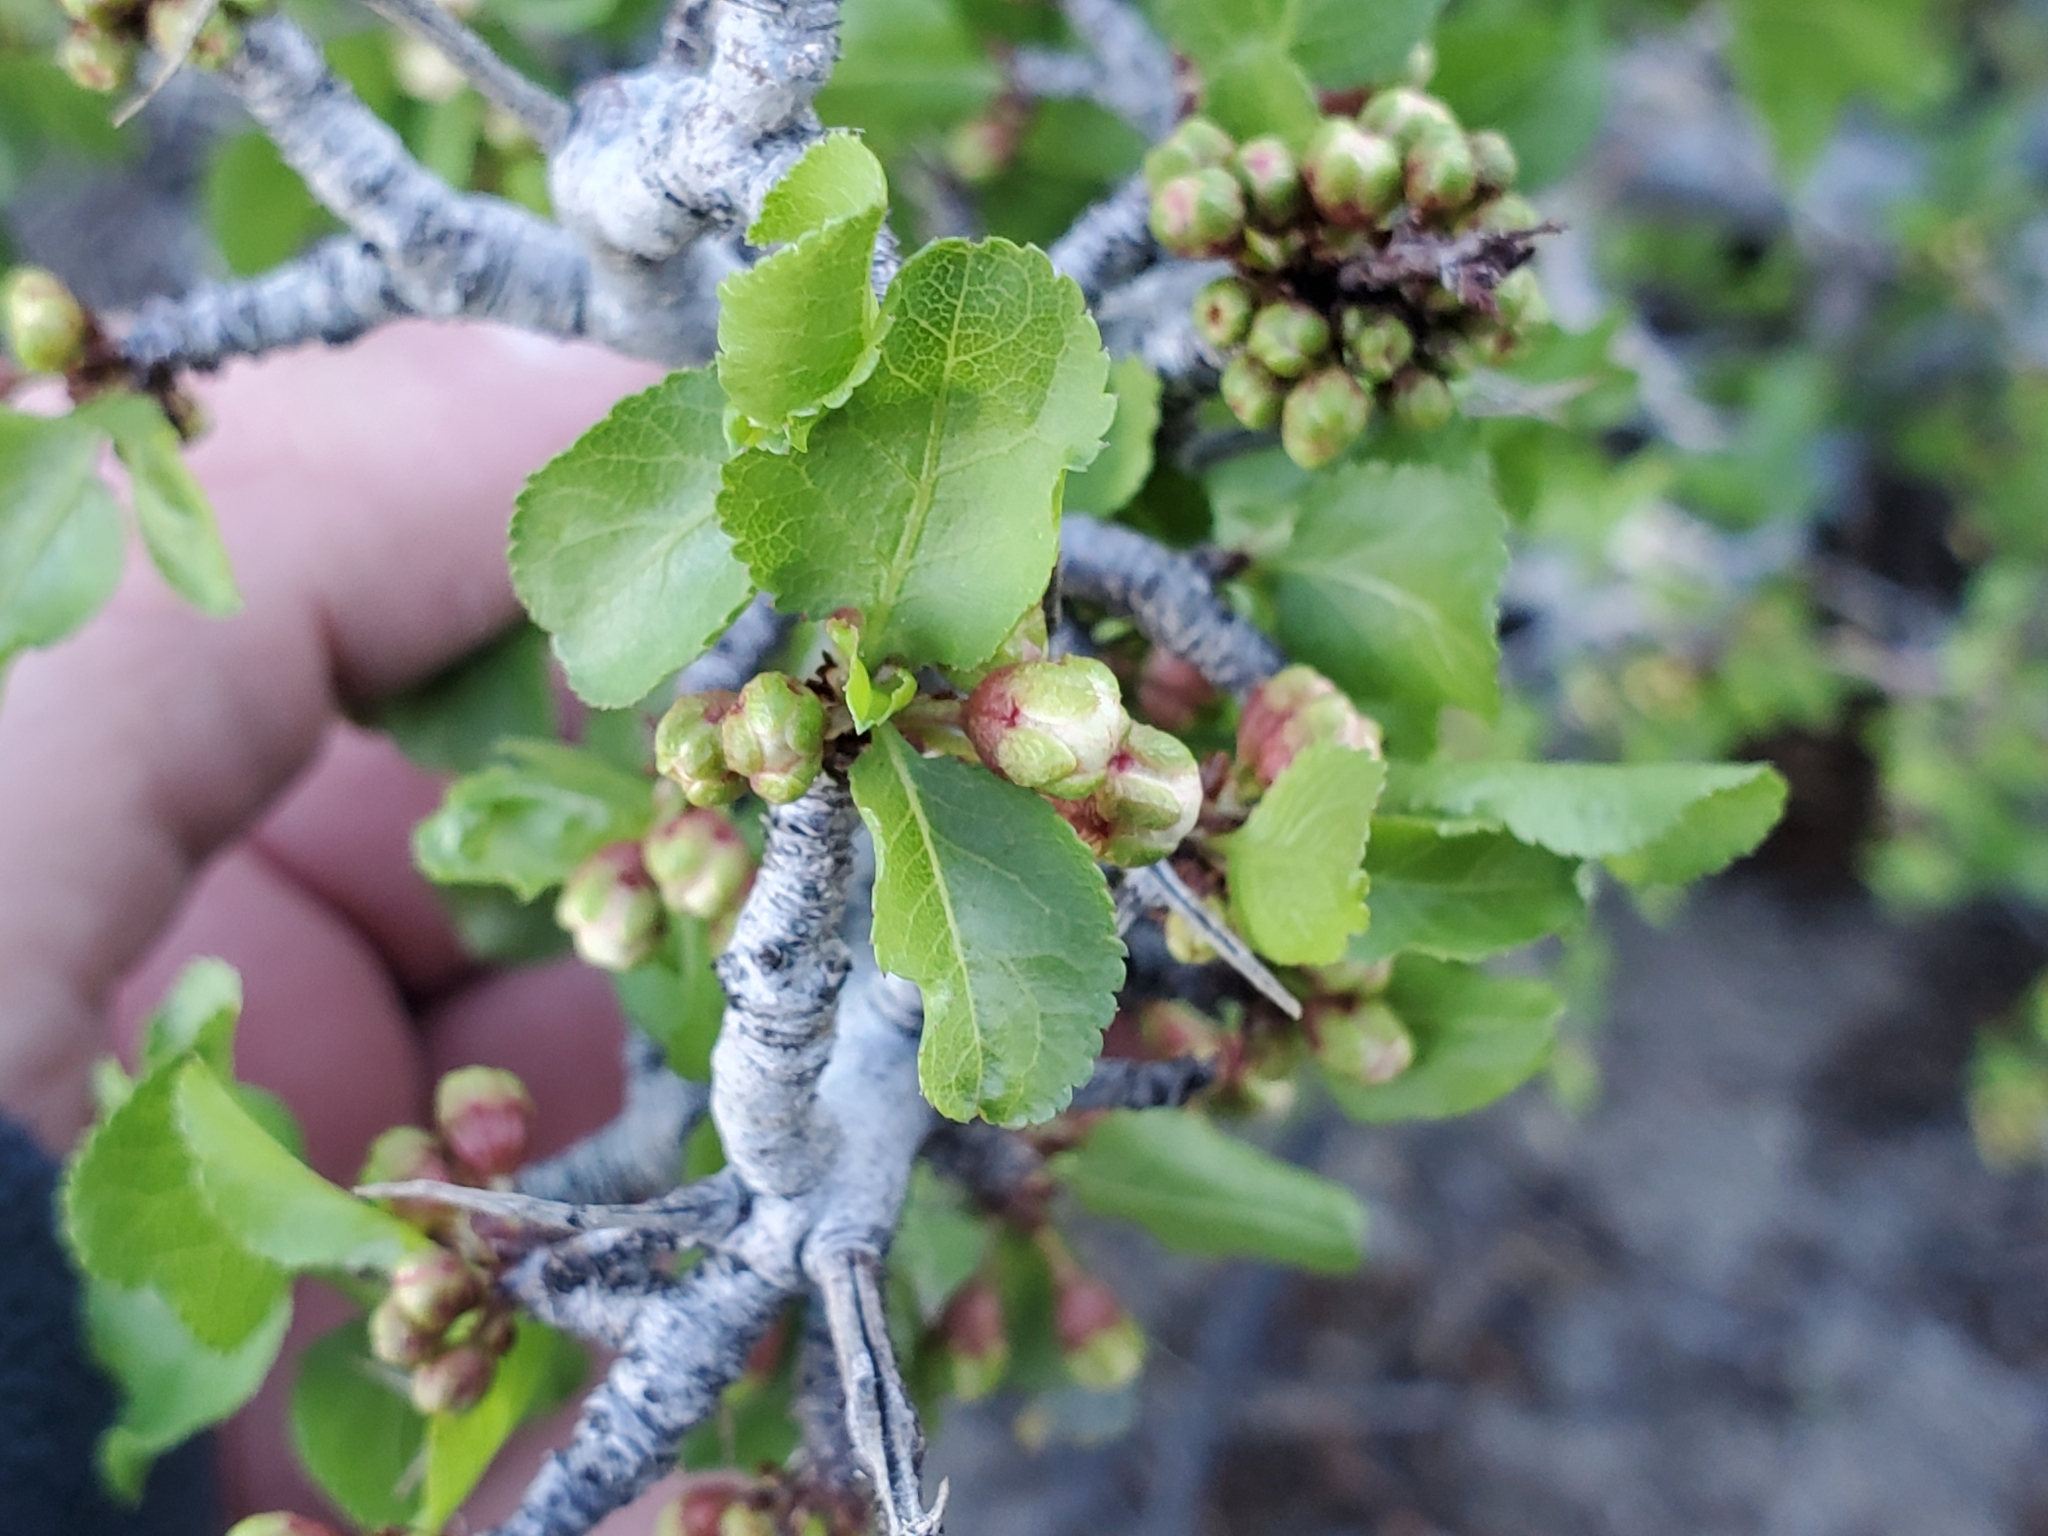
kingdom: Plantae
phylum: Tracheophyta
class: Magnoliopsida
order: Rosales
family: Rosaceae
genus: Prunus
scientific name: Prunus fremontii
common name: Desert apricot
